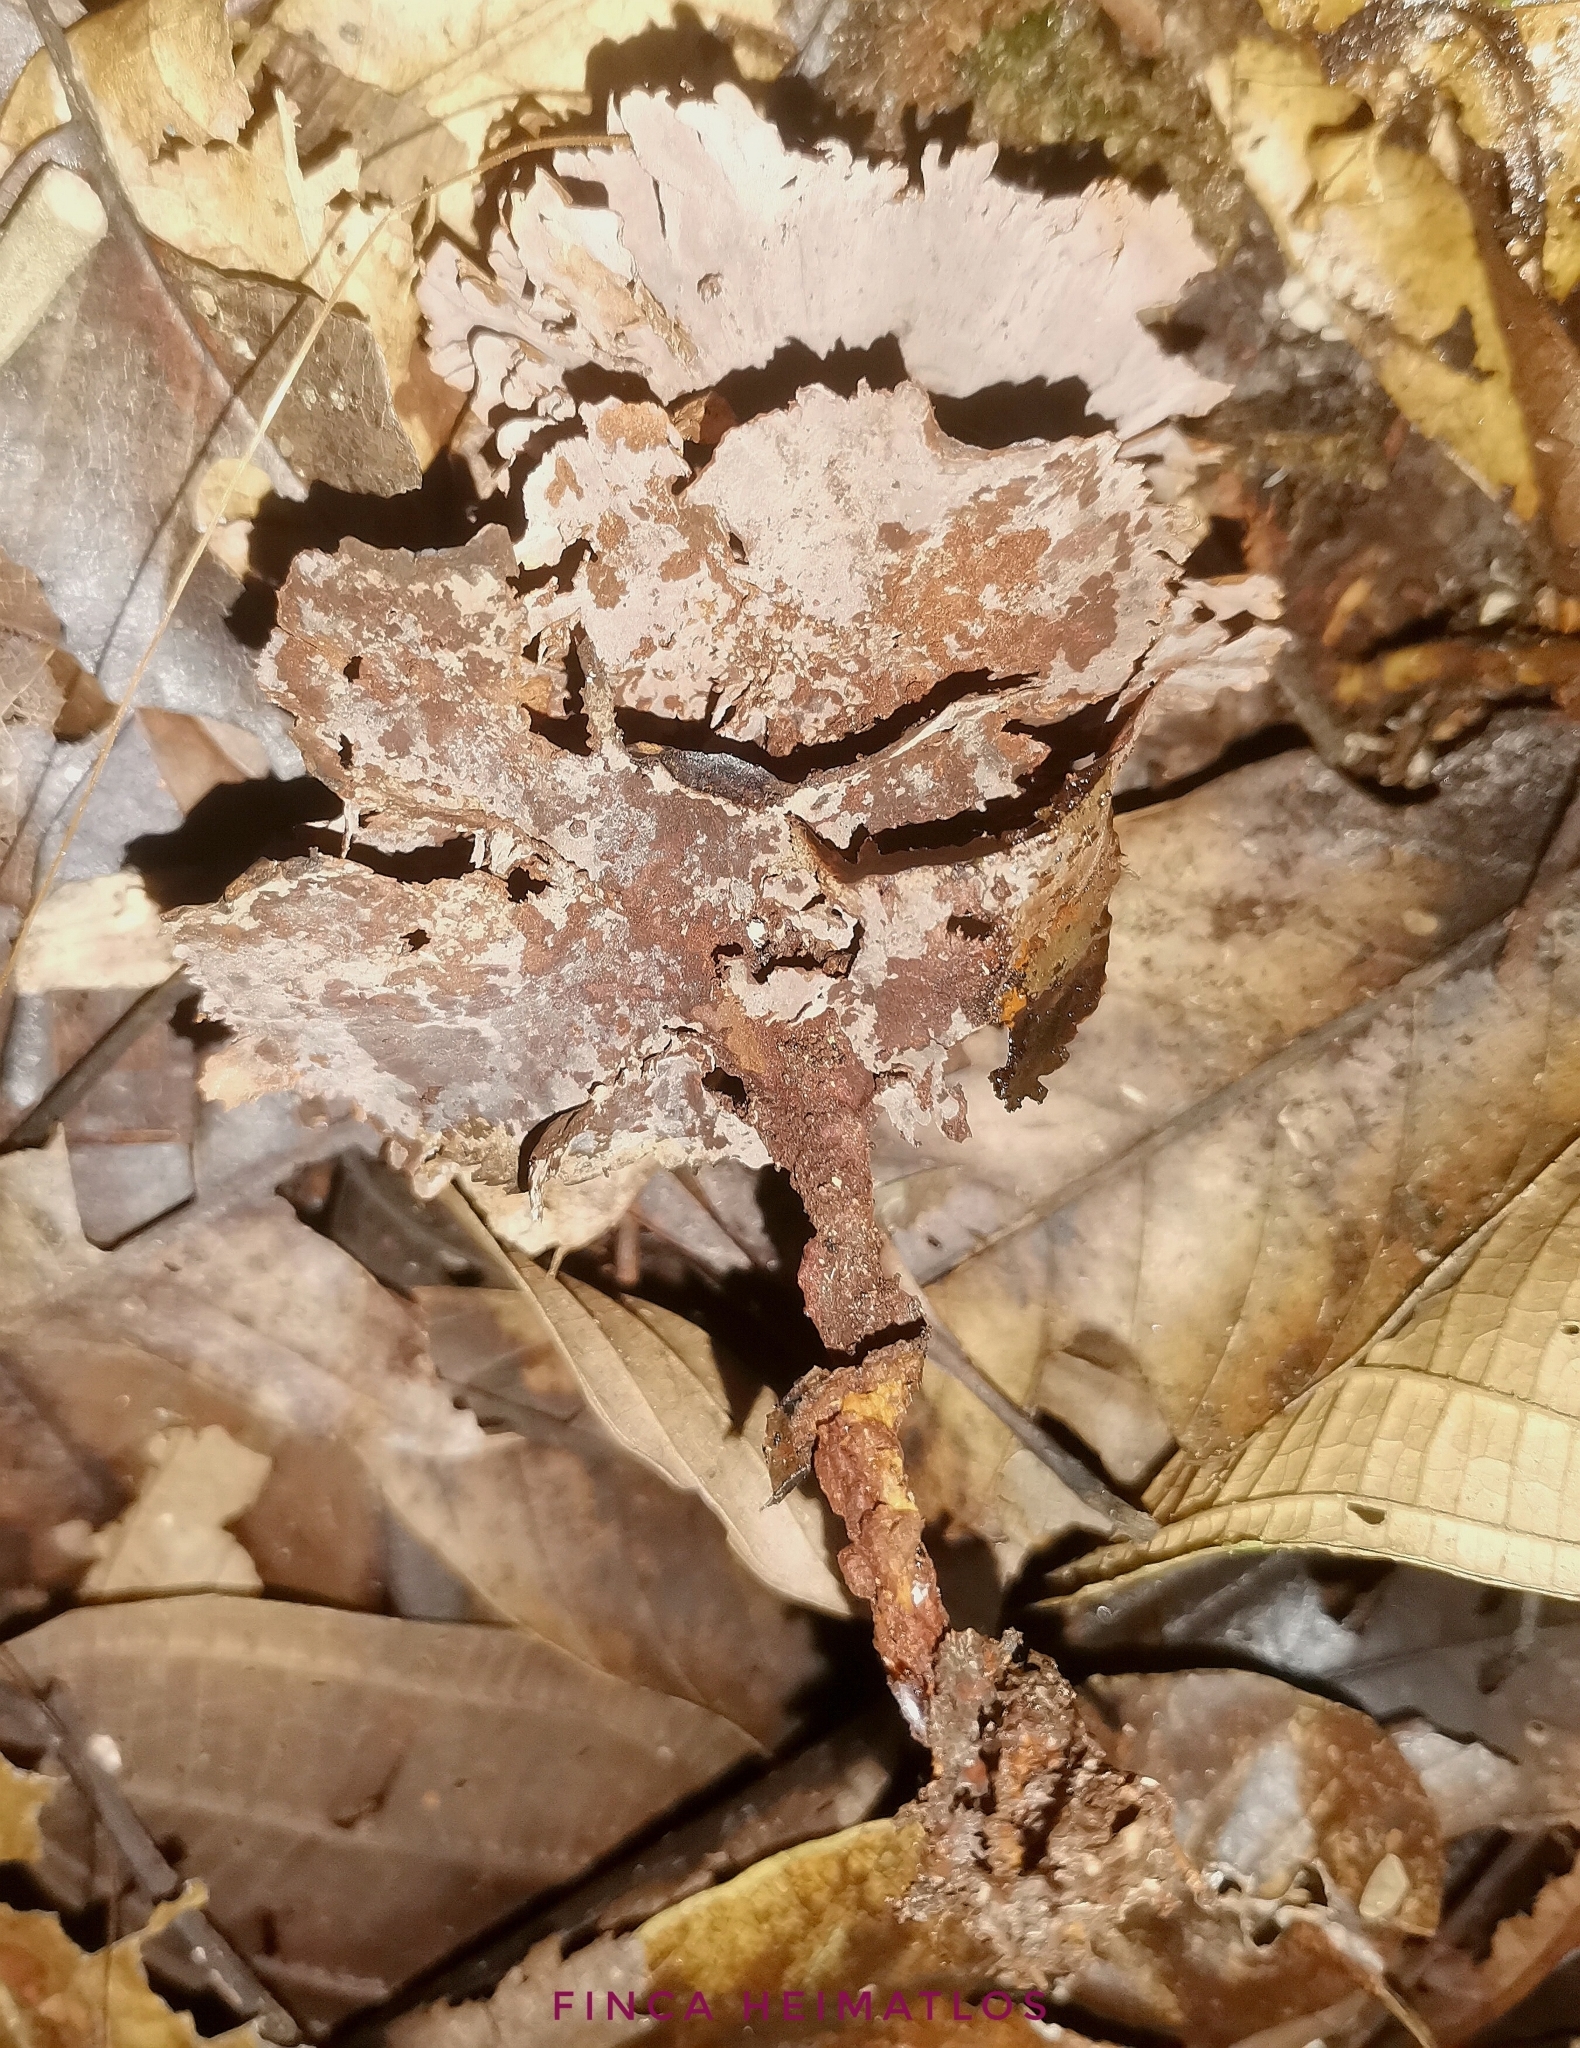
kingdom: Fungi
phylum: Basidiomycota
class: Agaricomycetes
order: Hymenochaetales
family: Hymenochaetaceae
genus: Hymenochaete
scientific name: Hymenochaete damicornis
